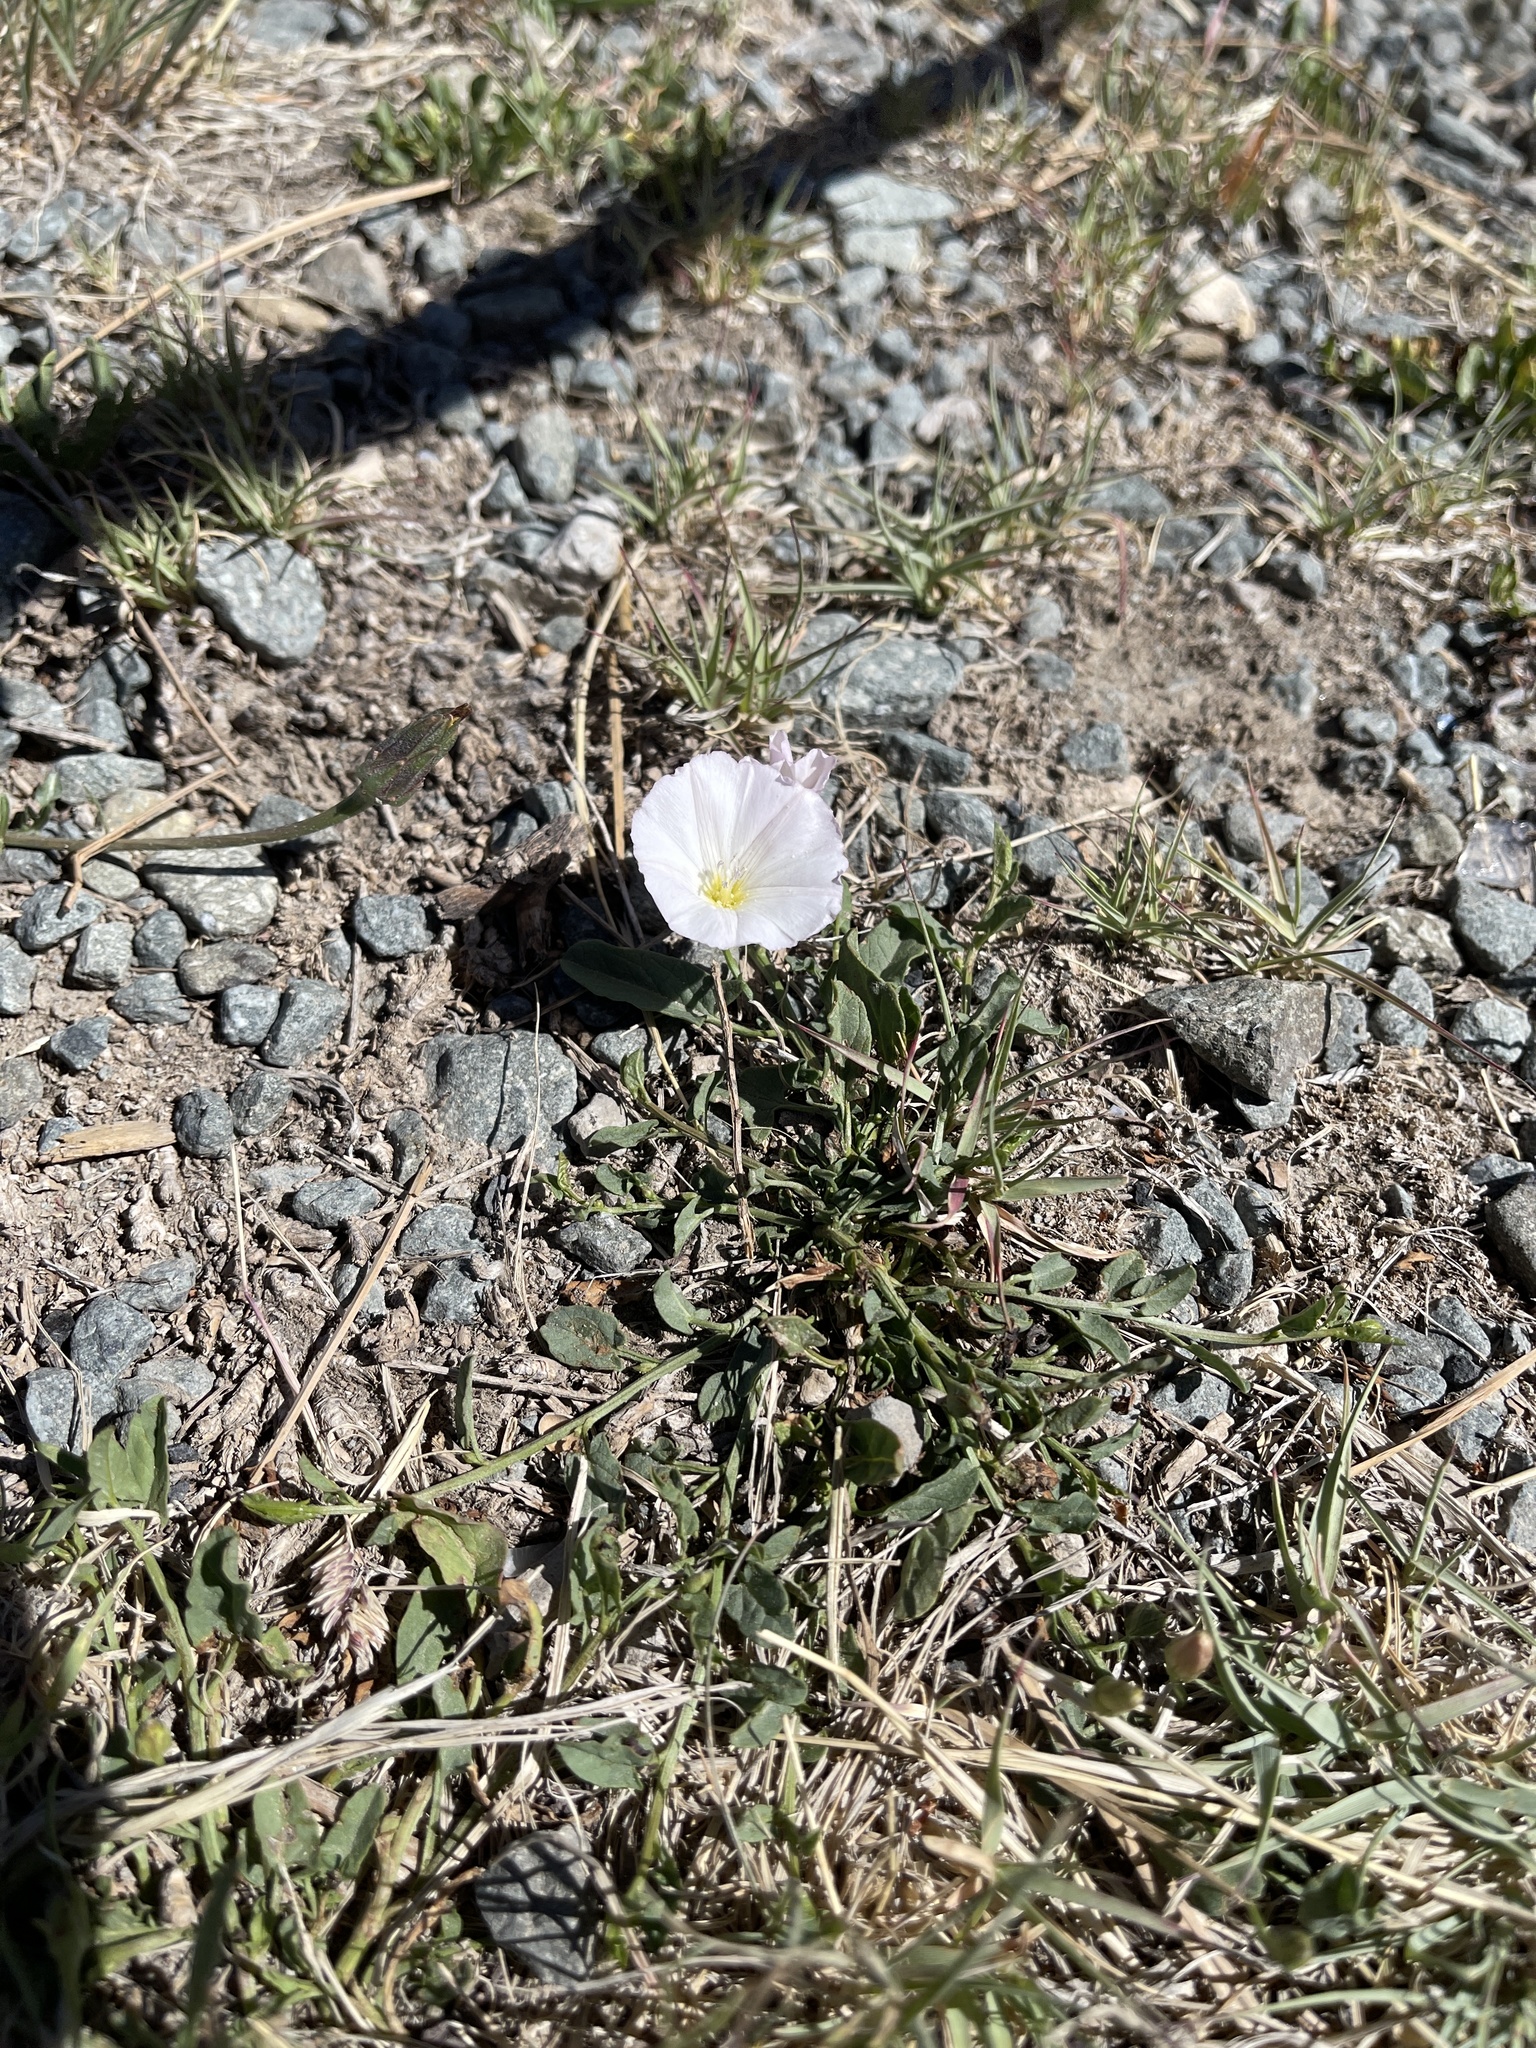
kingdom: Plantae
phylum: Tracheophyta
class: Magnoliopsida
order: Solanales
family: Convolvulaceae
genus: Convolvulus
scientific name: Convolvulus arvensis
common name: Field bindweed
